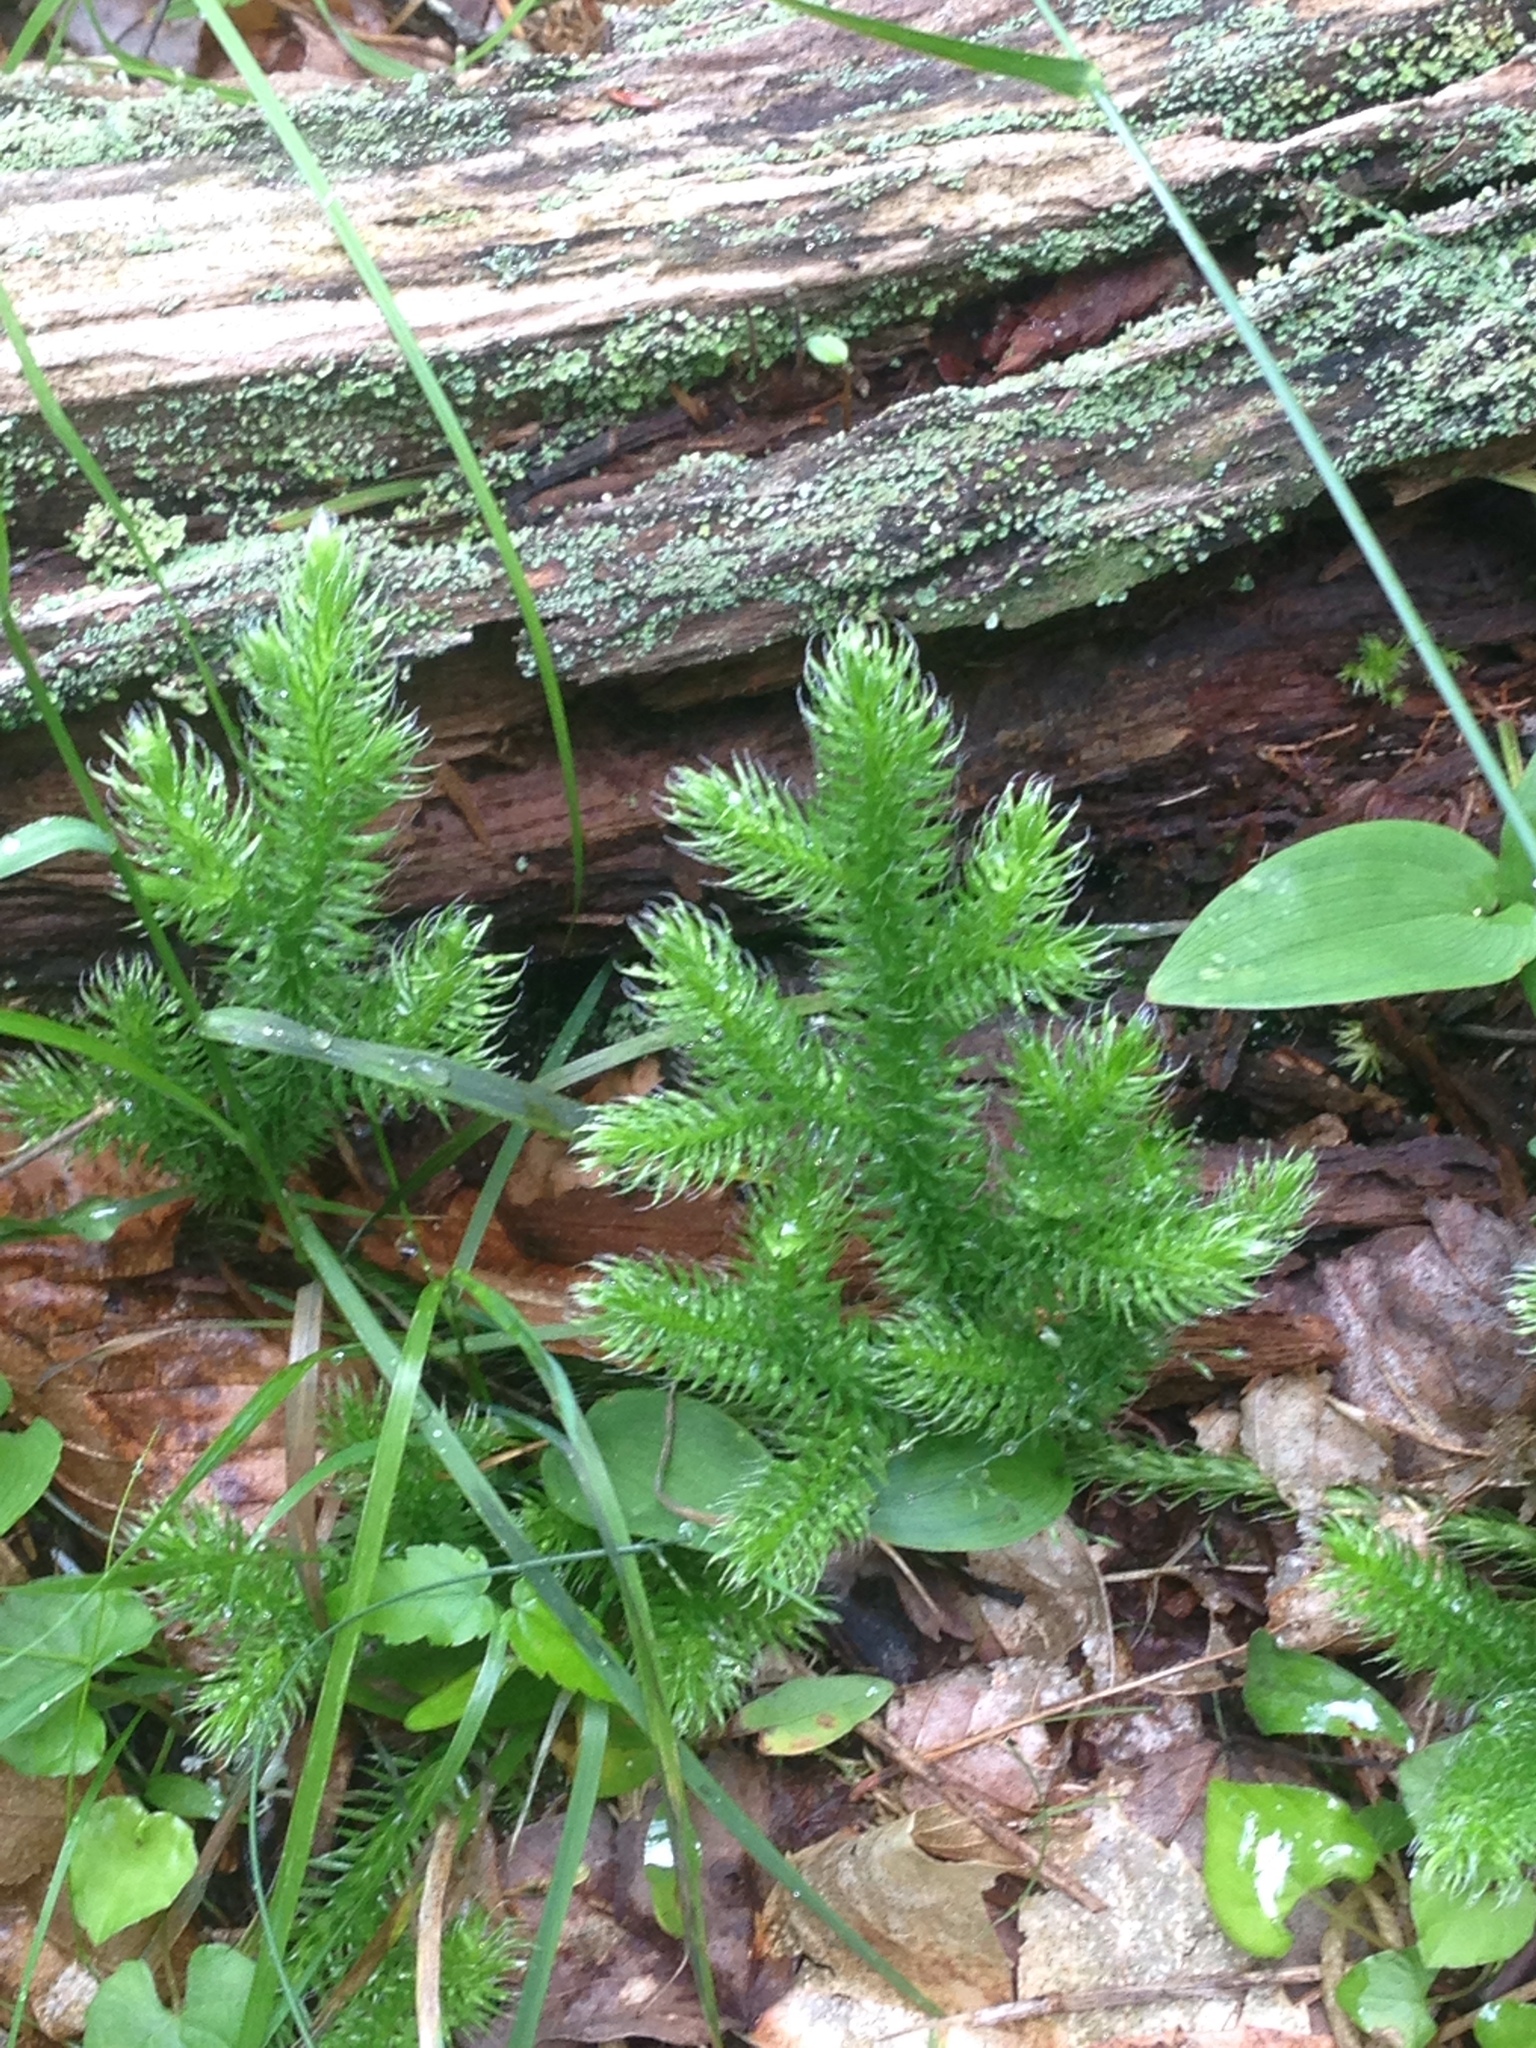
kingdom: Plantae
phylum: Tracheophyta
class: Lycopodiopsida
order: Lycopodiales
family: Lycopodiaceae
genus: Lycopodium
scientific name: Lycopodium clavatum
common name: Stag's-horn clubmoss
